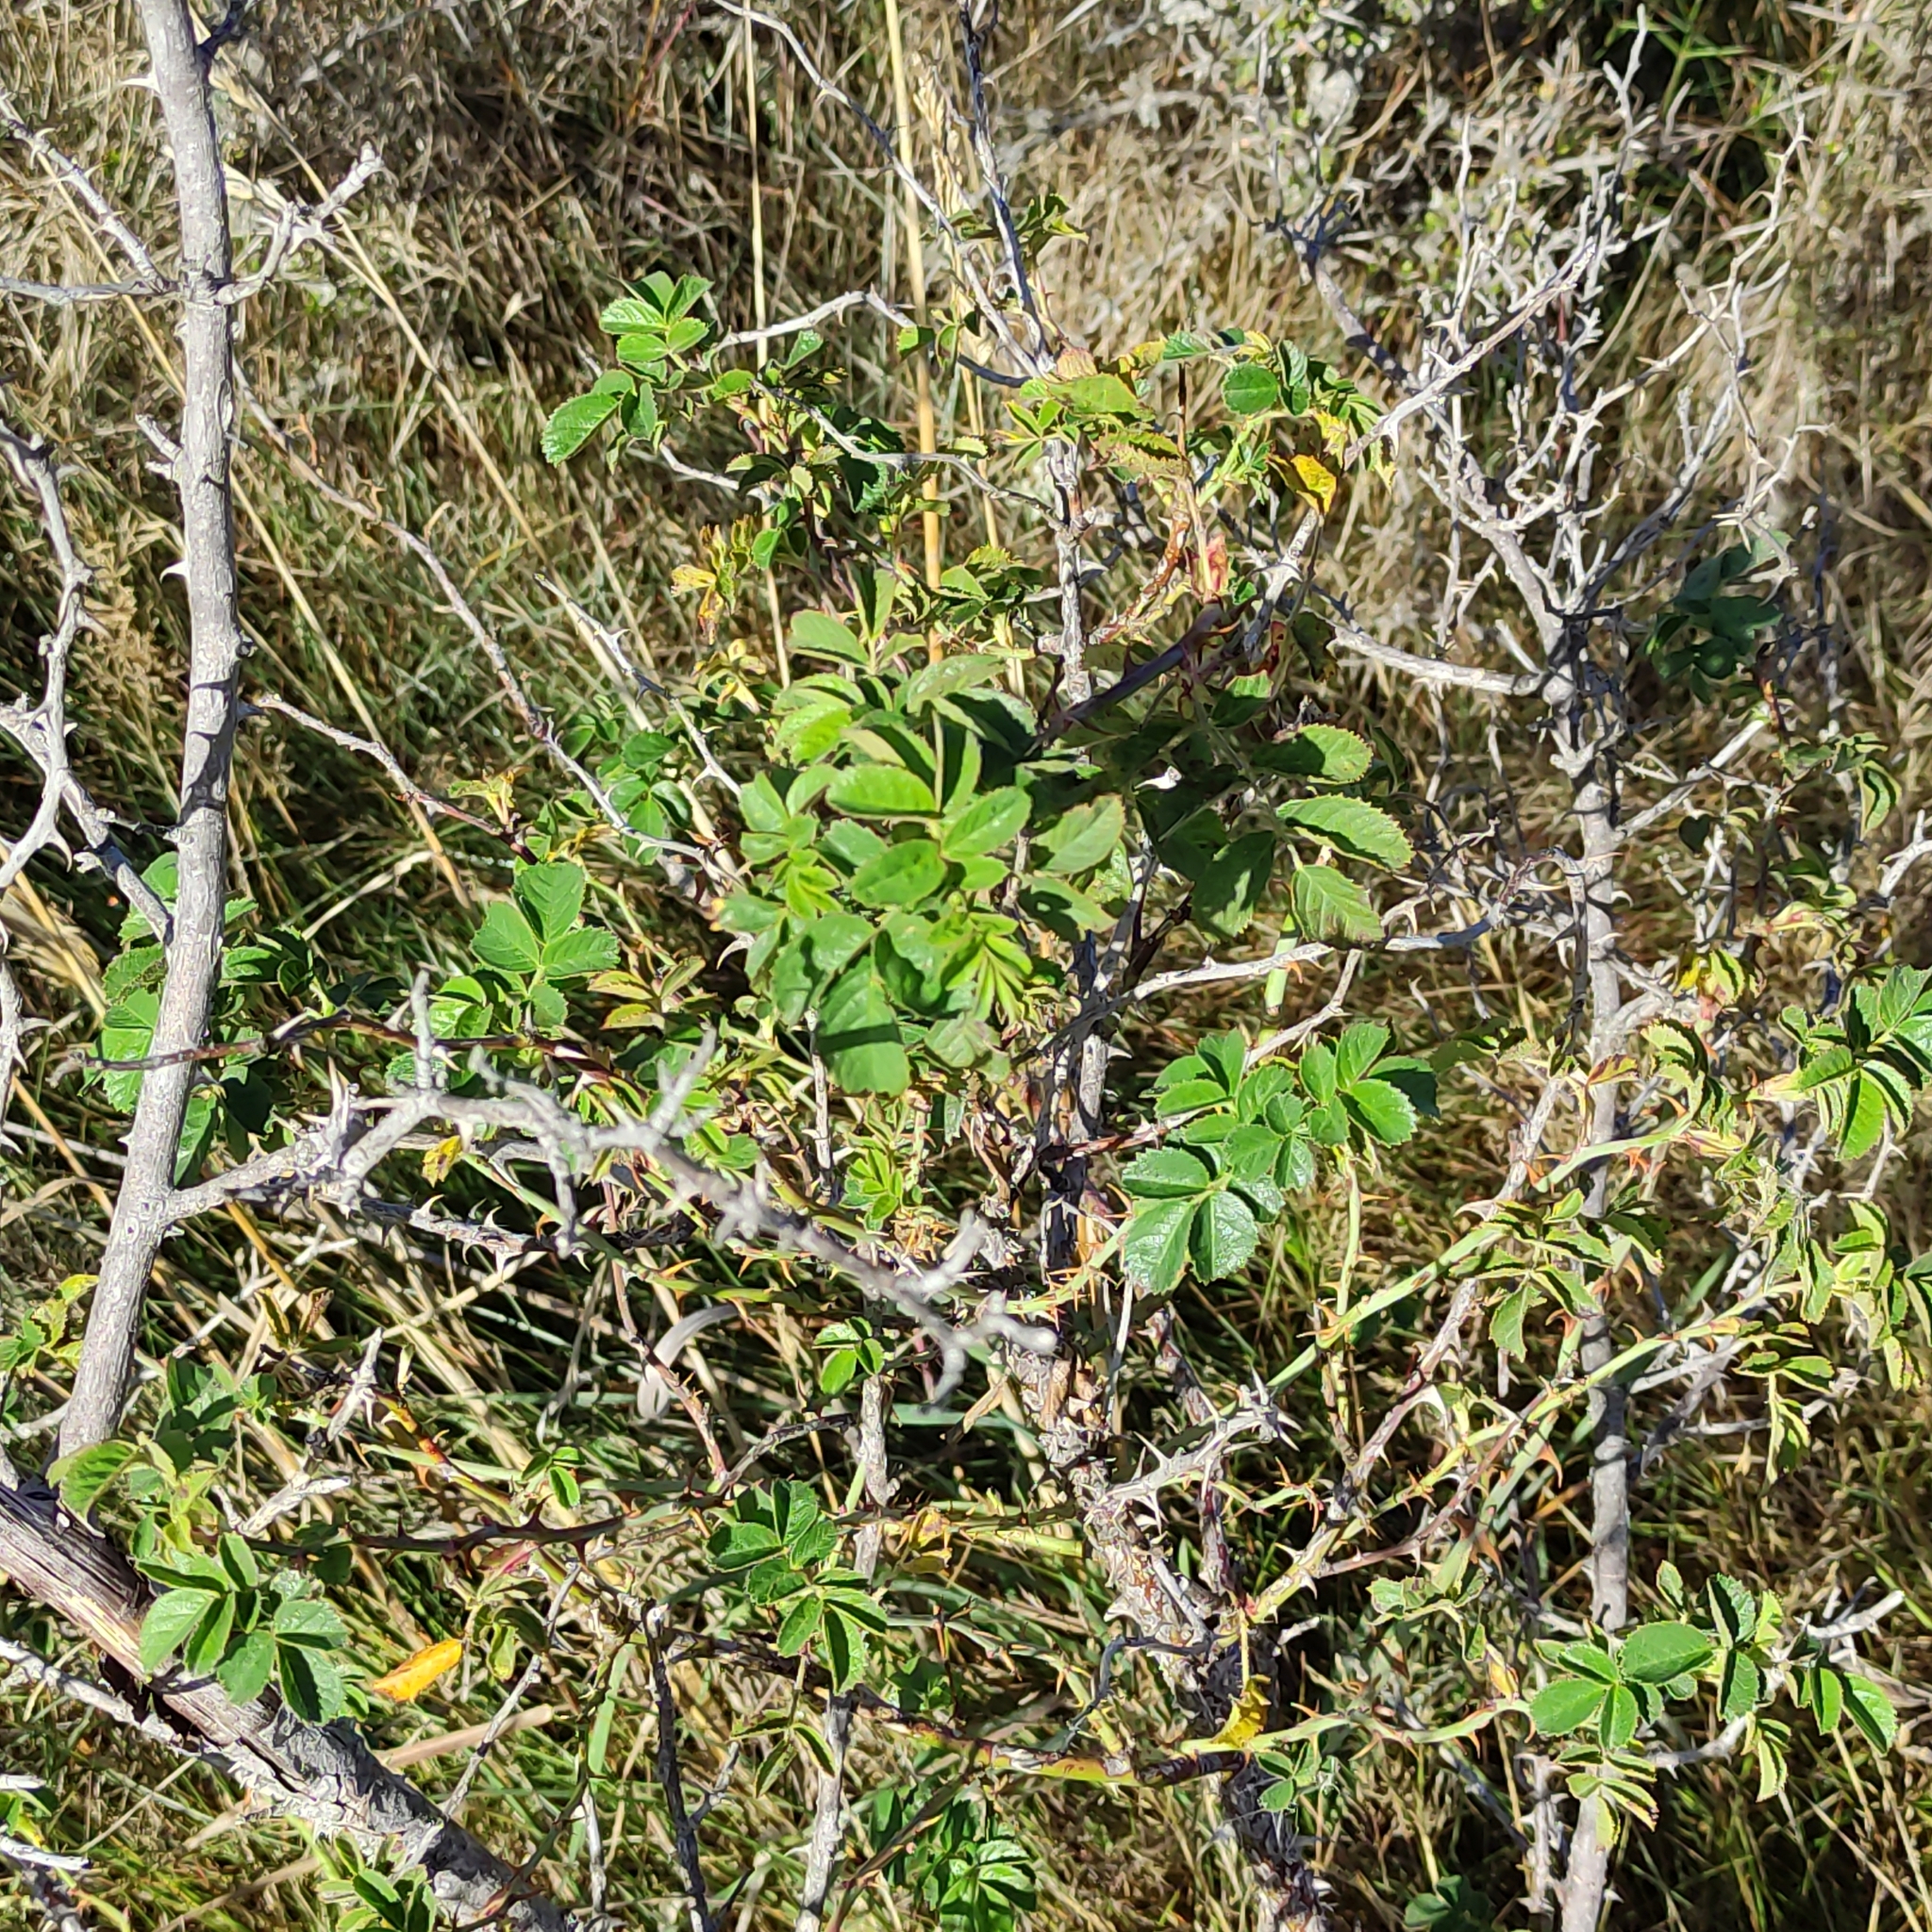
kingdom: Plantae
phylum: Tracheophyta
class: Magnoliopsida
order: Rosales
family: Rosaceae
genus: Rosa
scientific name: Rosa rubiginosa
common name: Sweet-briar
